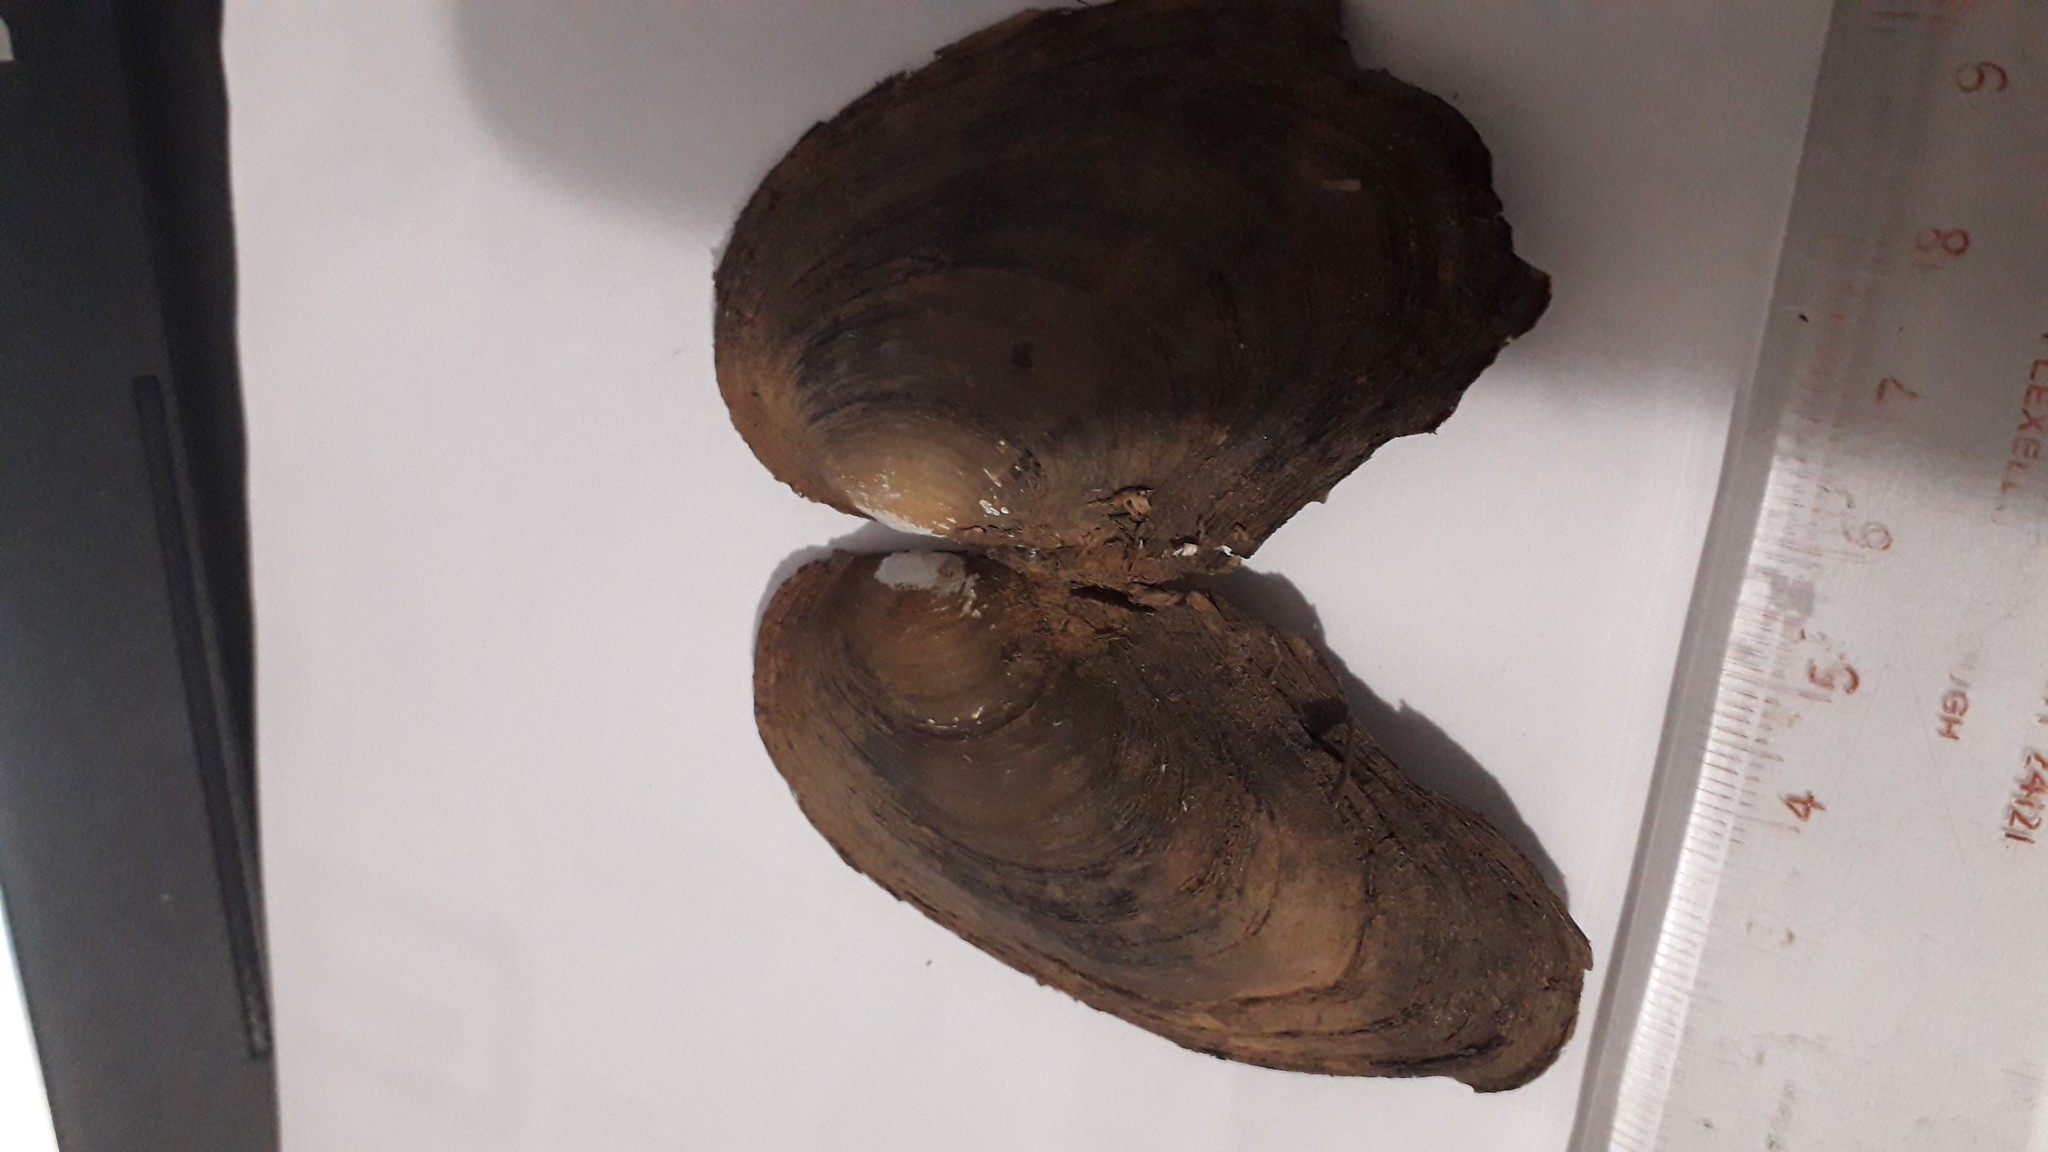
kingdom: Animalia
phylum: Mollusca
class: Bivalvia
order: Unionida
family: Unionidae
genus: Anodonta
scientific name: Anodonta anatina
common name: Duck mussel
